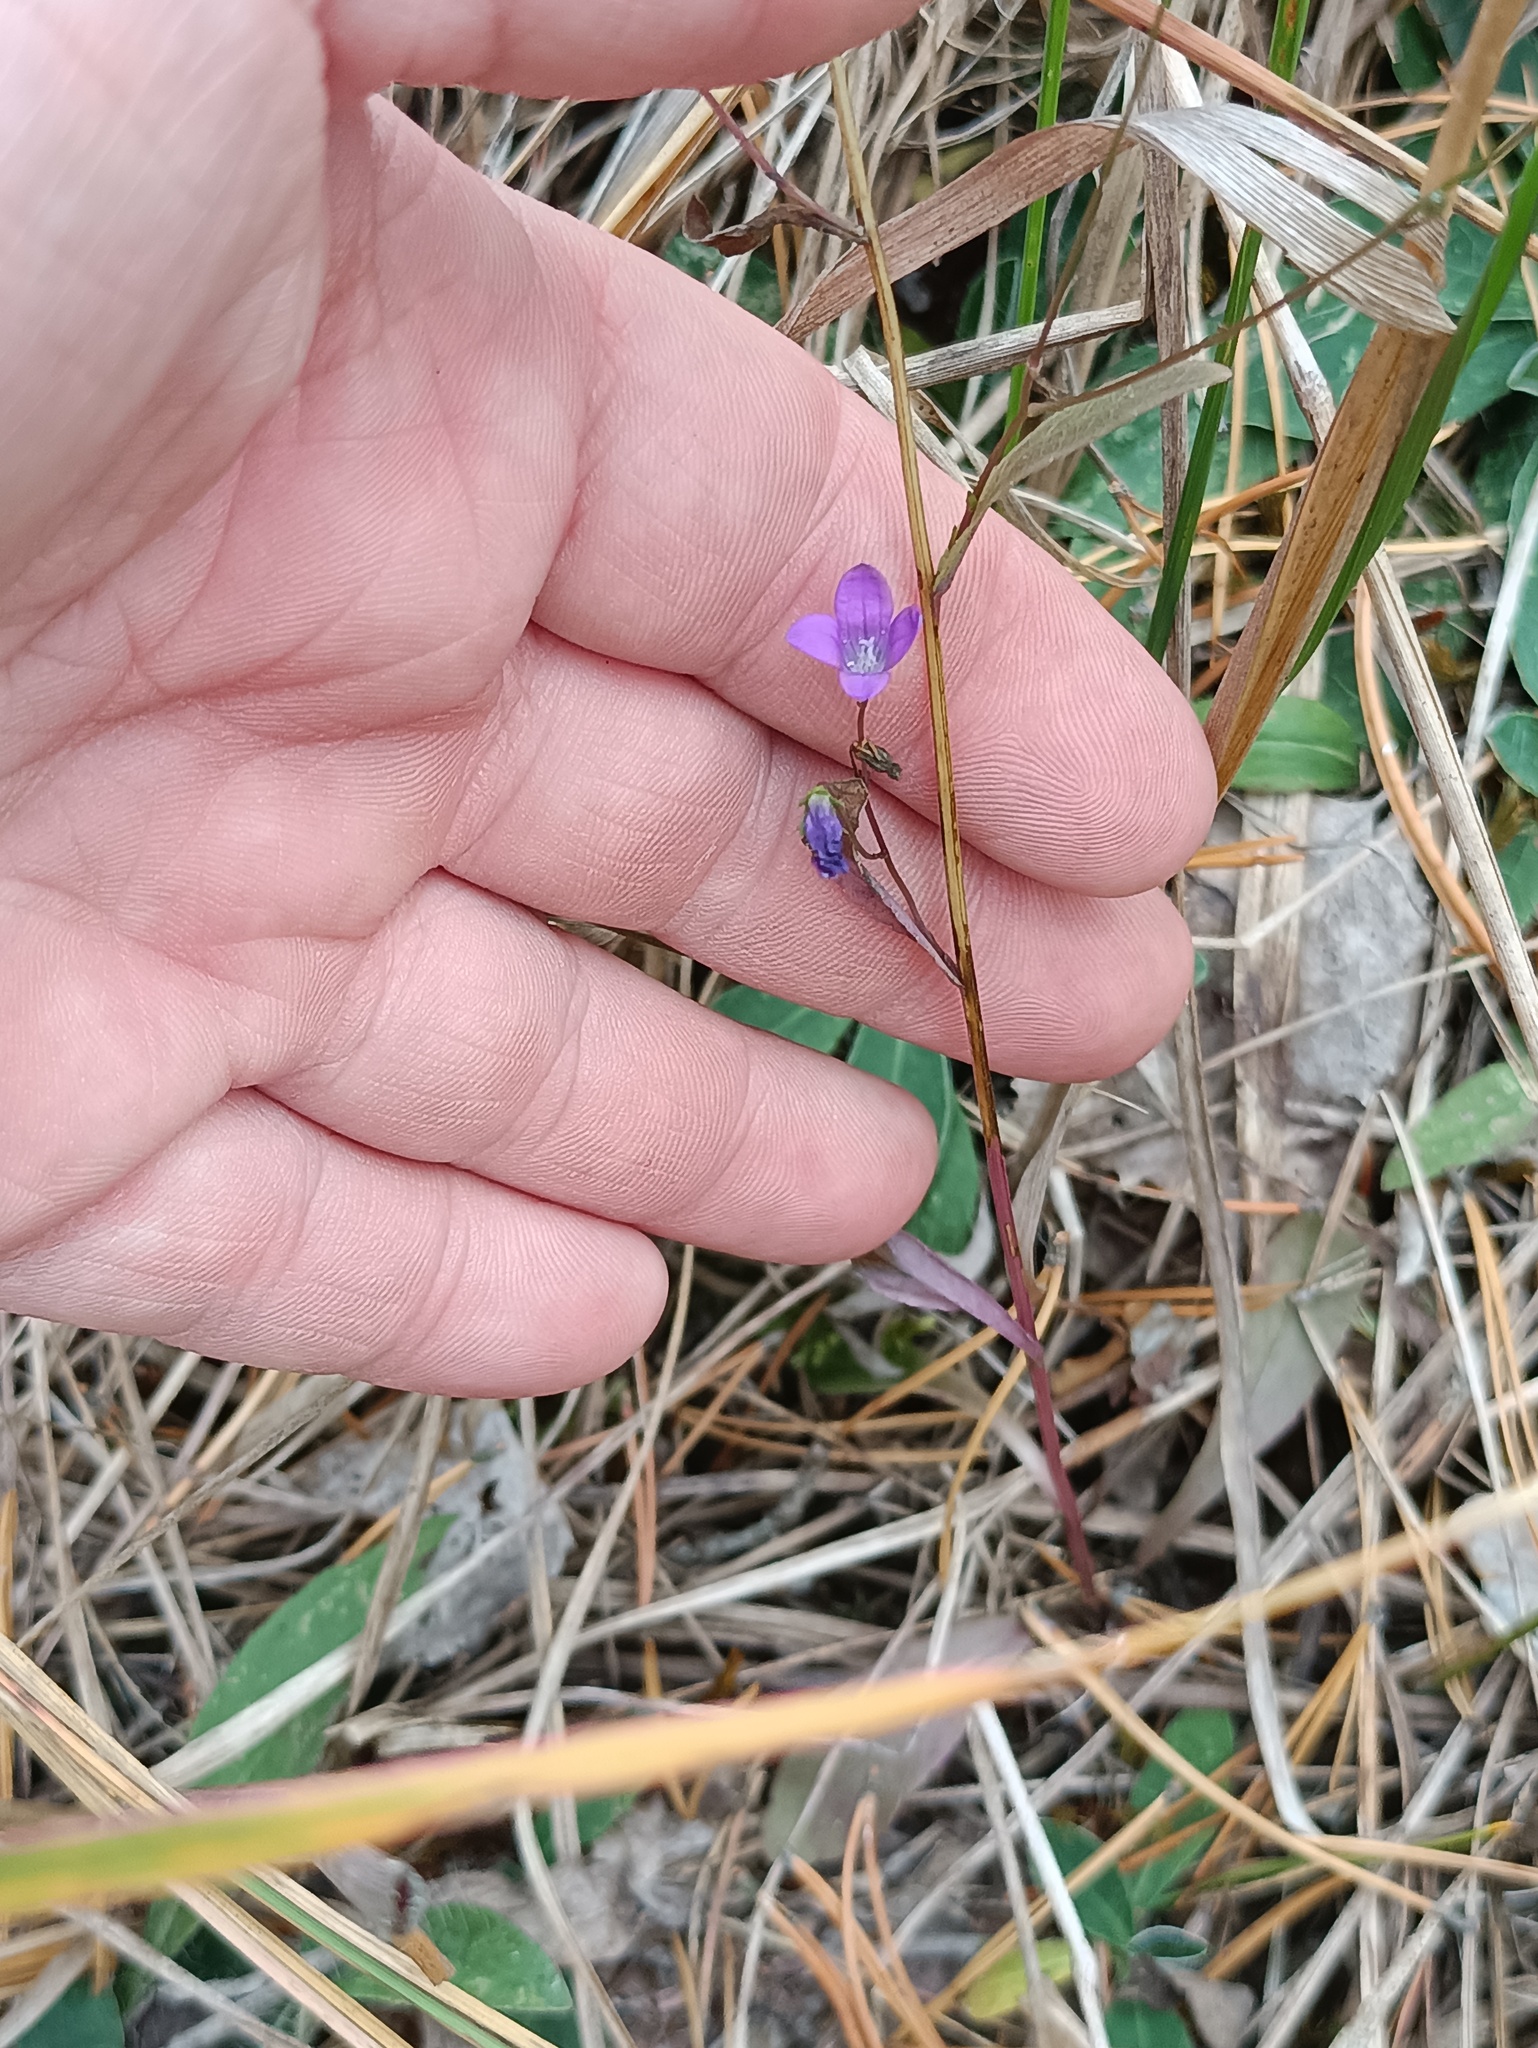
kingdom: Plantae
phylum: Tracheophyta
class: Magnoliopsida
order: Asterales
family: Campanulaceae
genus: Campanula
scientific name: Campanula patula
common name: Spreading bellflower
